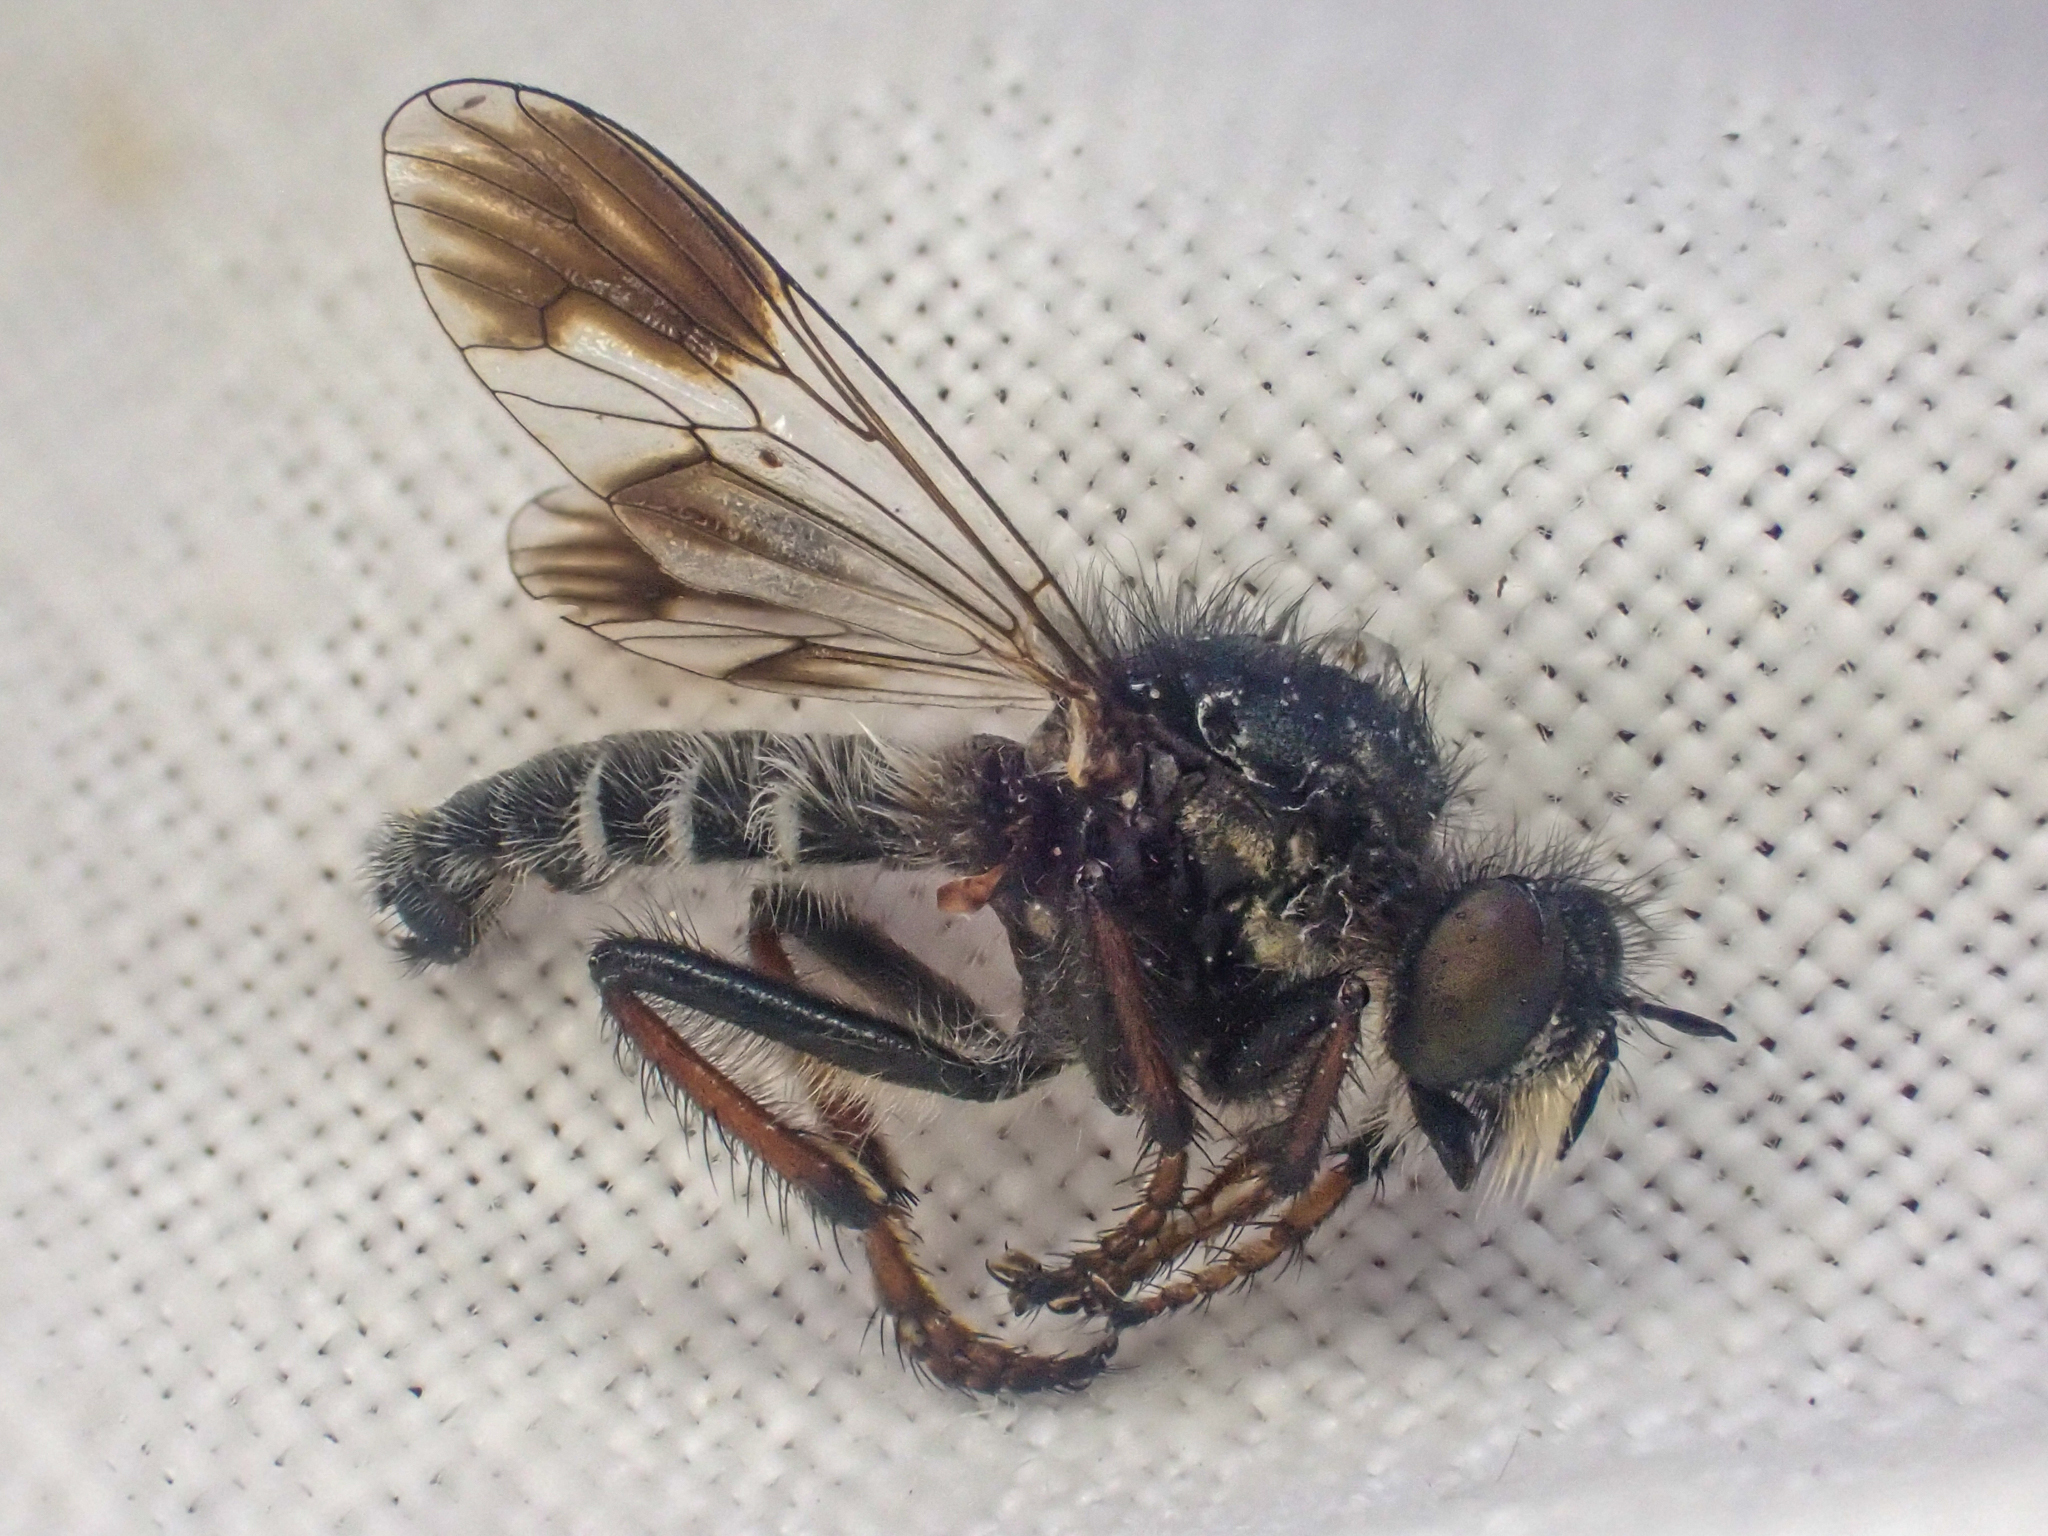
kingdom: Animalia
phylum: Arthropoda
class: Insecta
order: Diptera
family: Asilidae
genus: Cyrtopogon
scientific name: Cyrtopogon bimaculus
